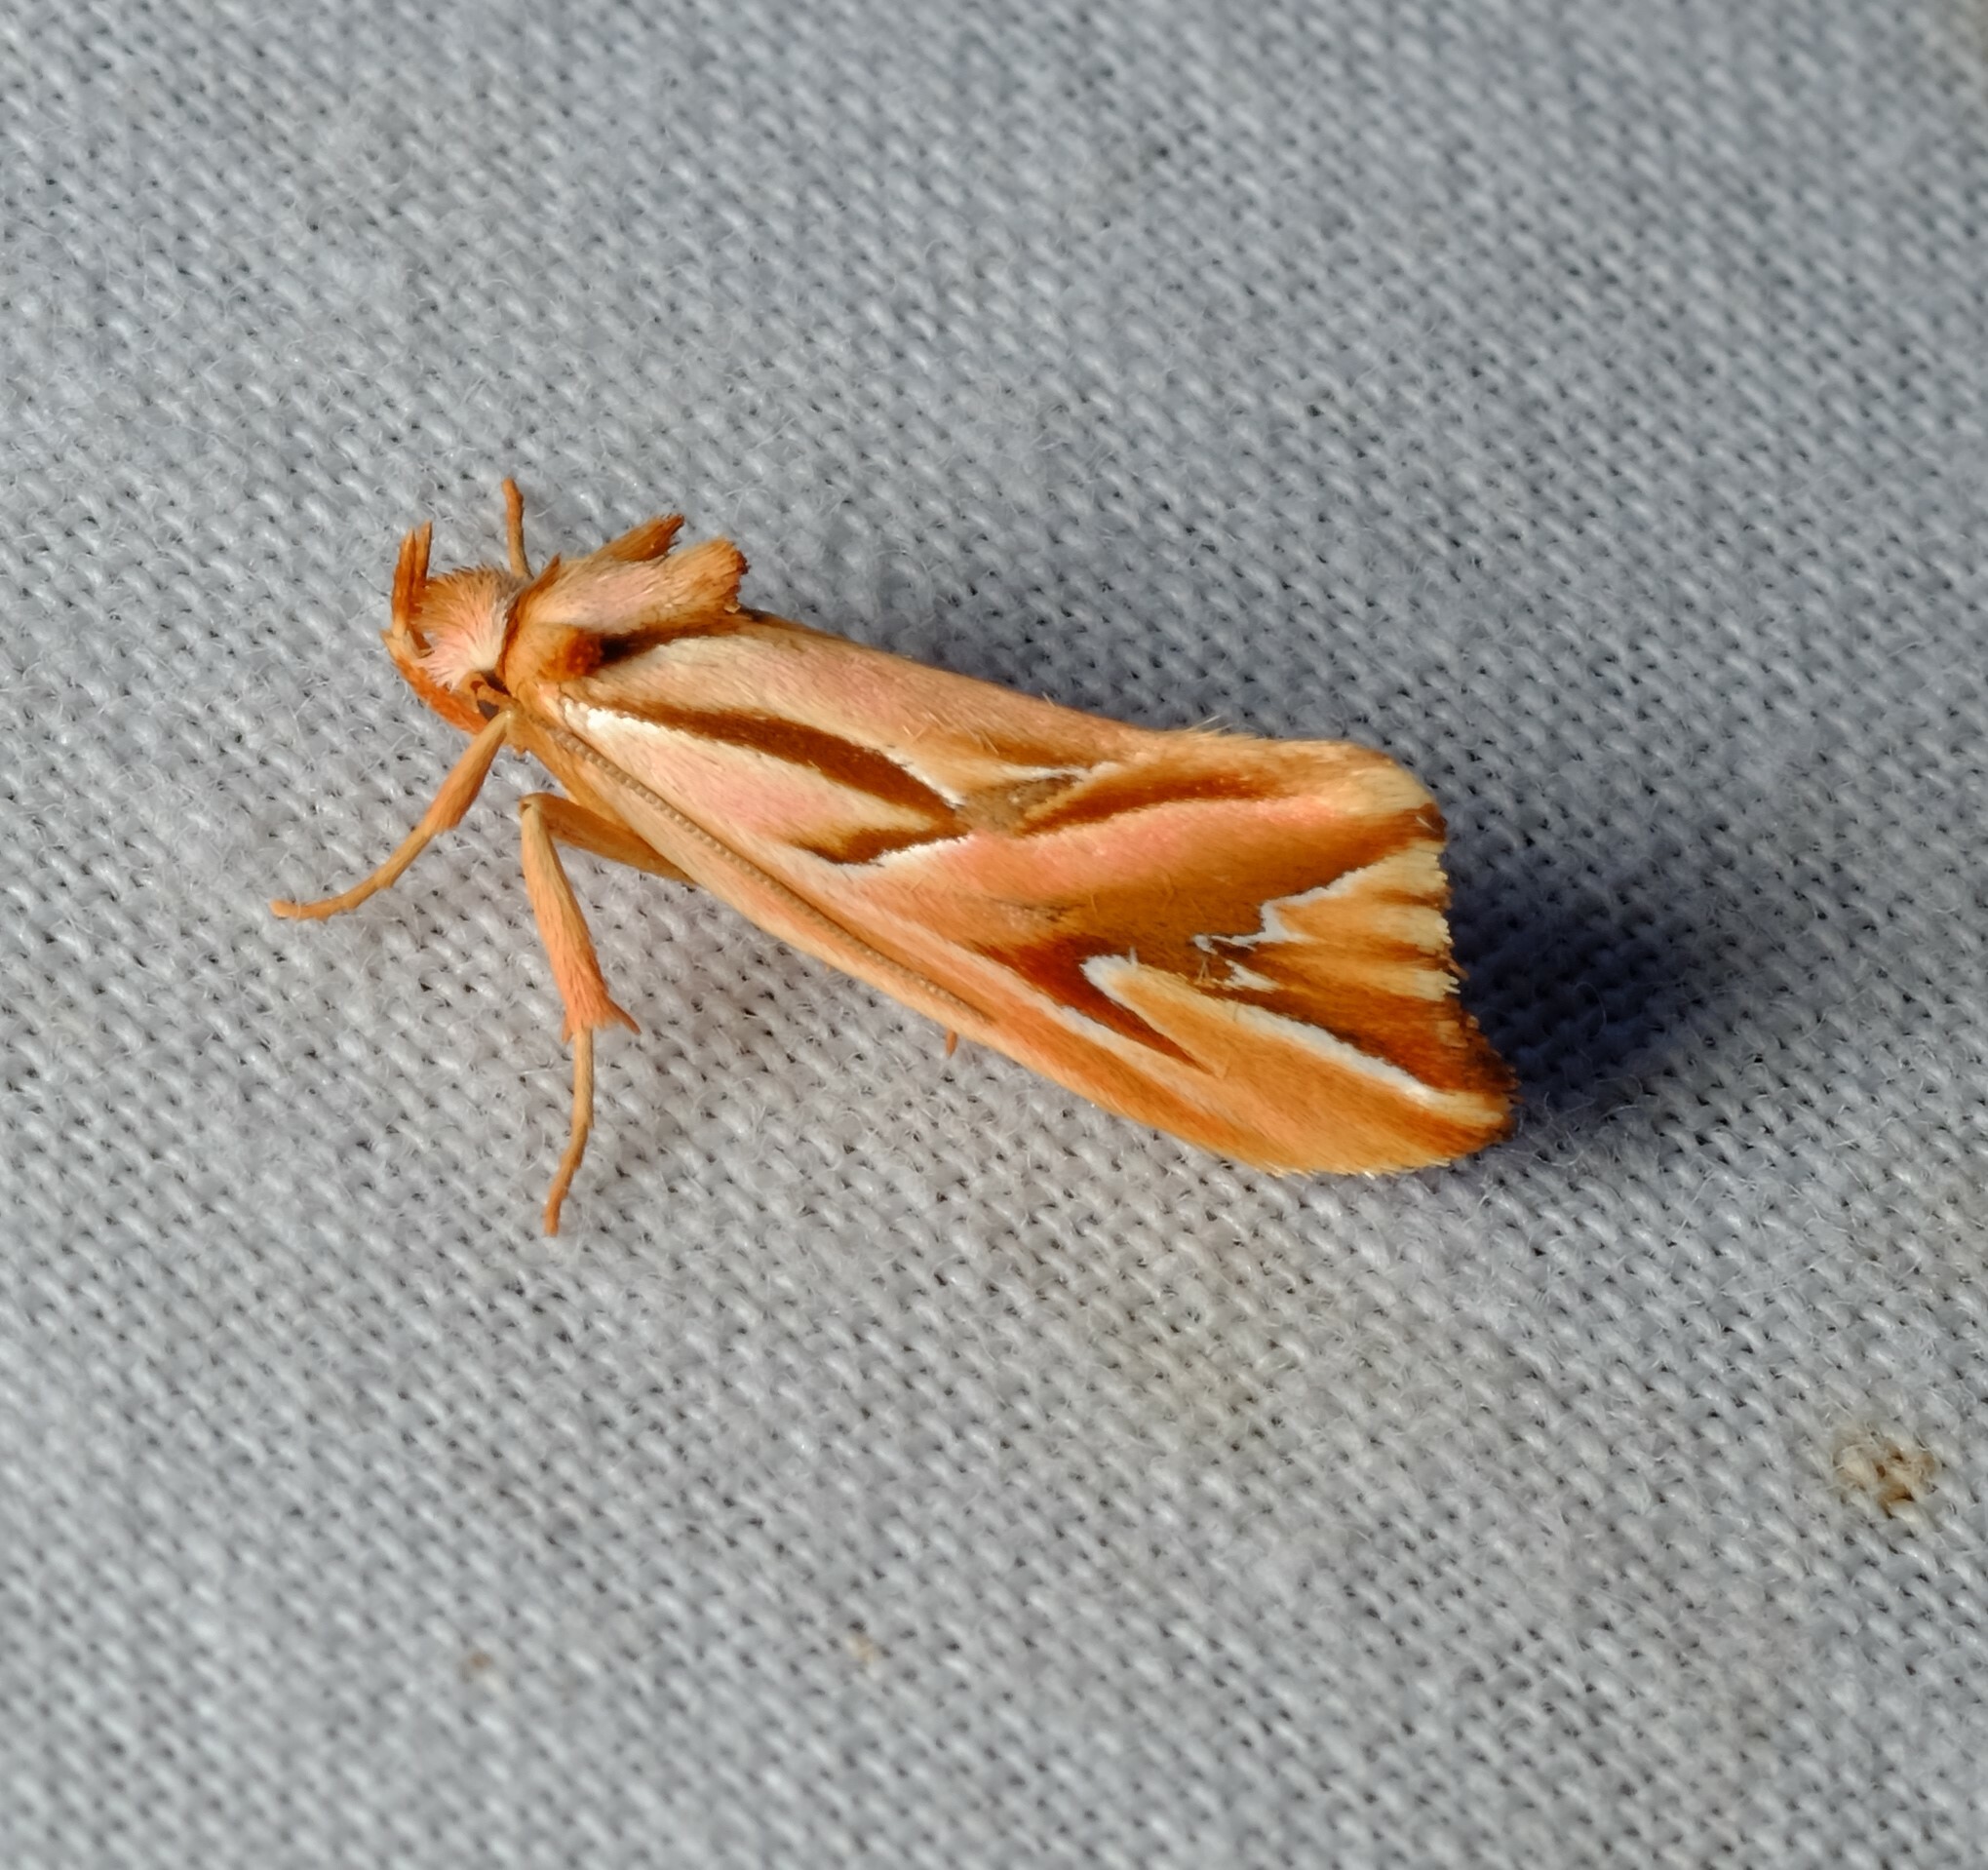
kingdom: Animalia
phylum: Arthropoda
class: Insecta
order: Lepidoptera
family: Depressariidae
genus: Eclecta
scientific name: Eclecta aurorella
